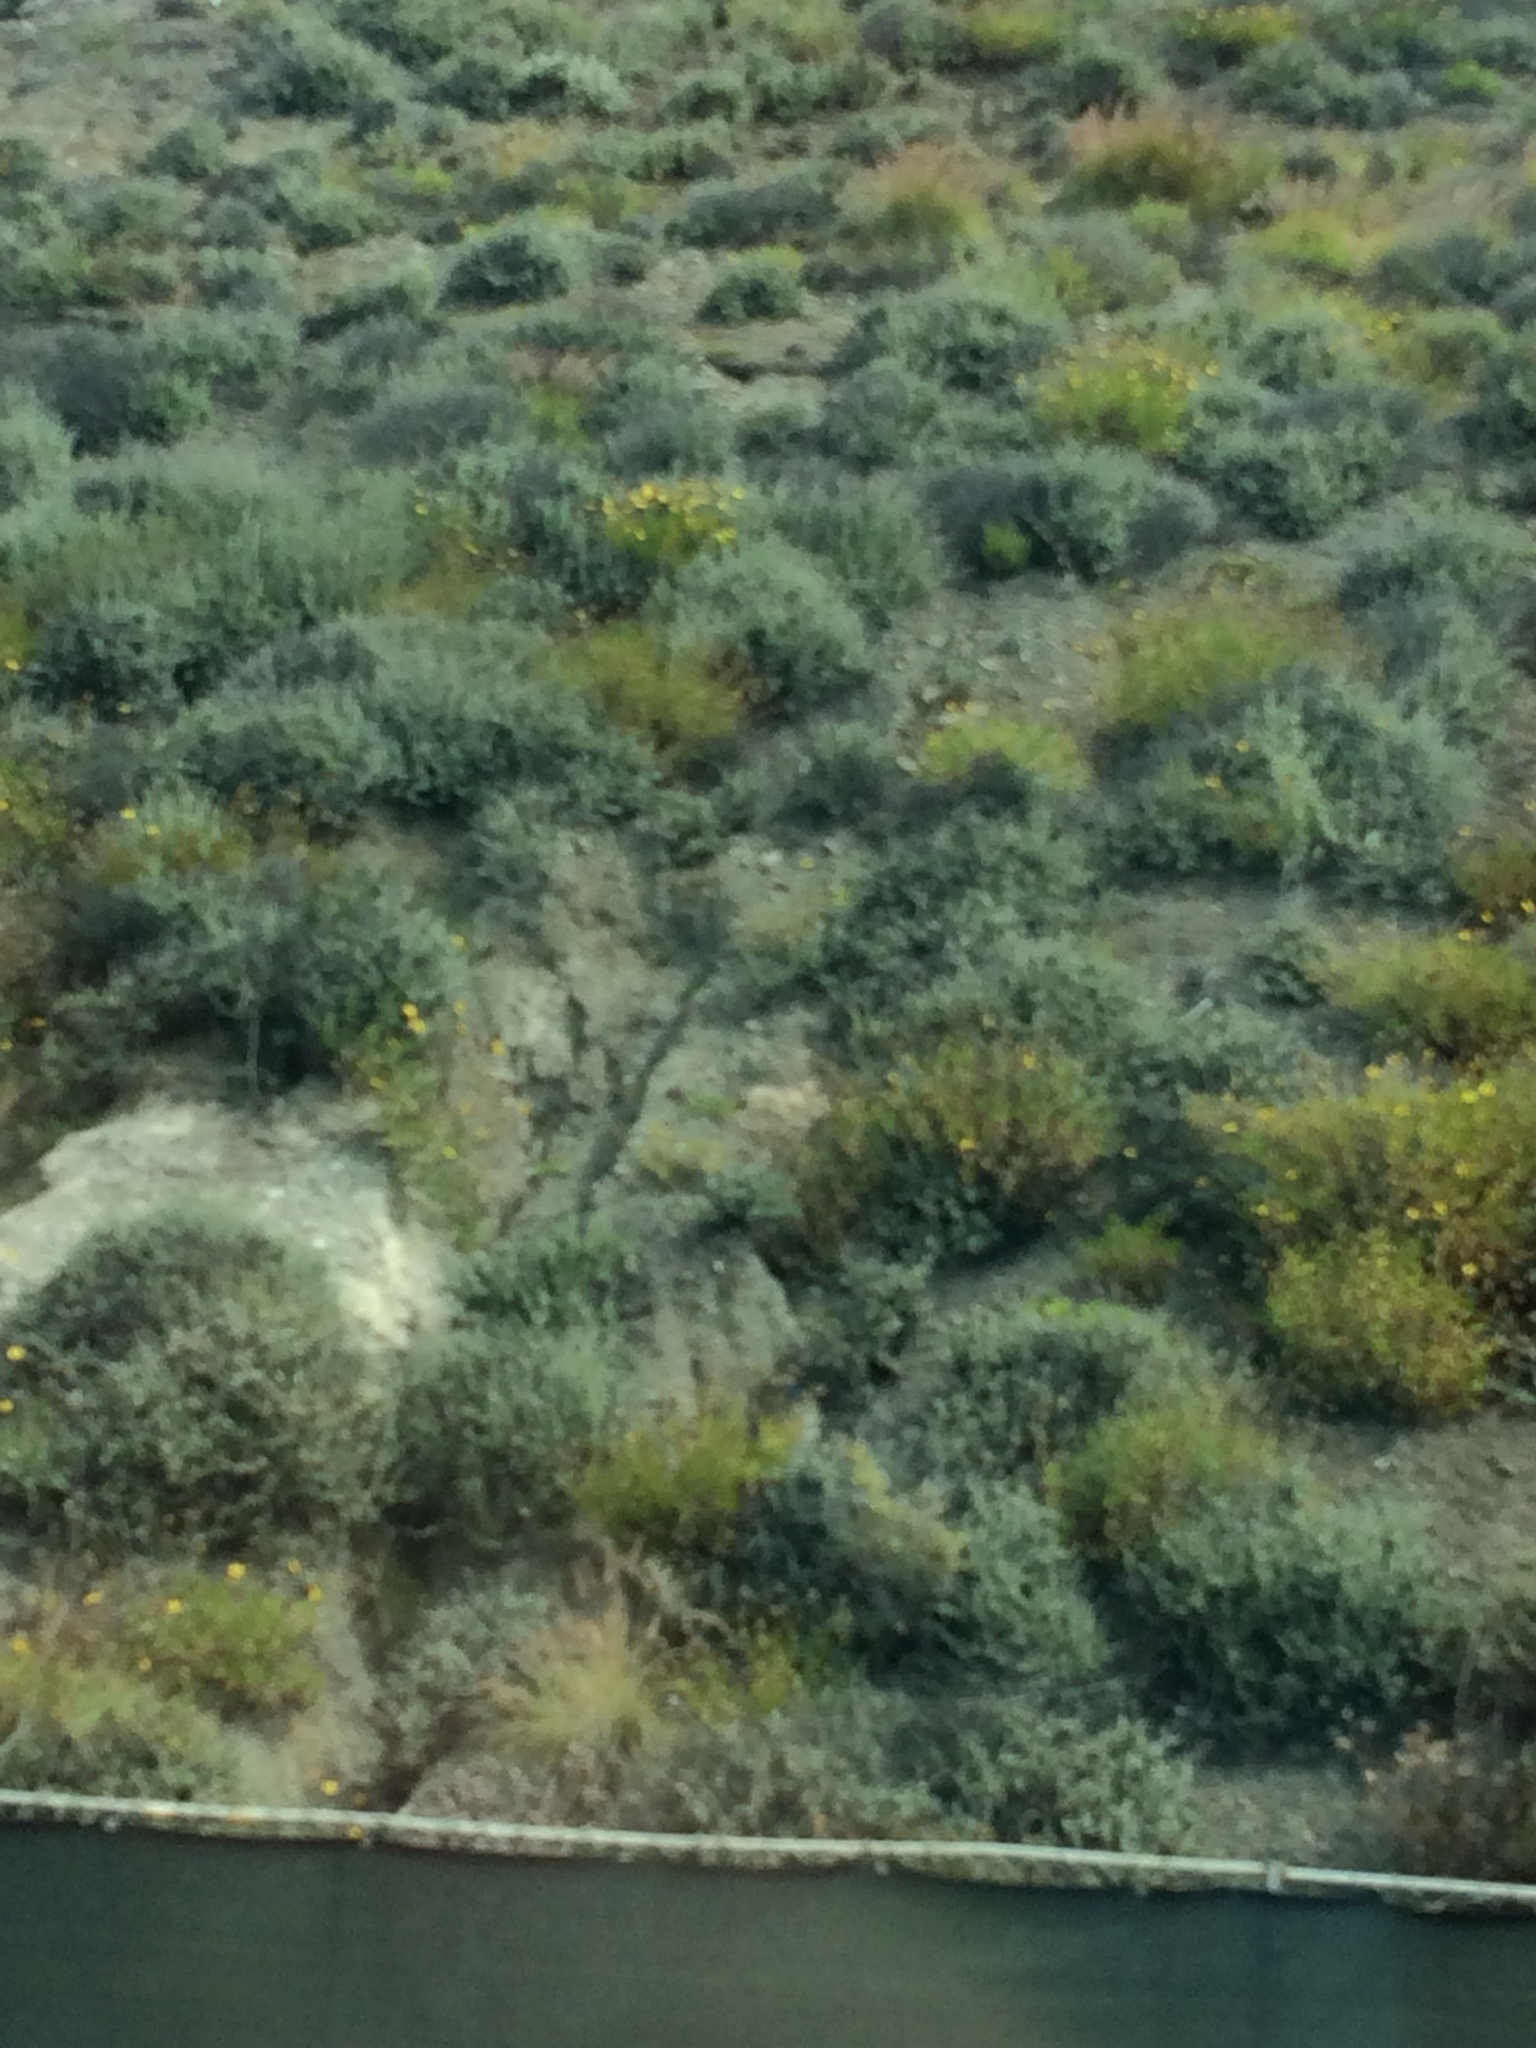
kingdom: Plantae
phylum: Tracheophyta
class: Magnoliopsida
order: Asterales
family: Asteraceae
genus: Encelia
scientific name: Encelia californica
